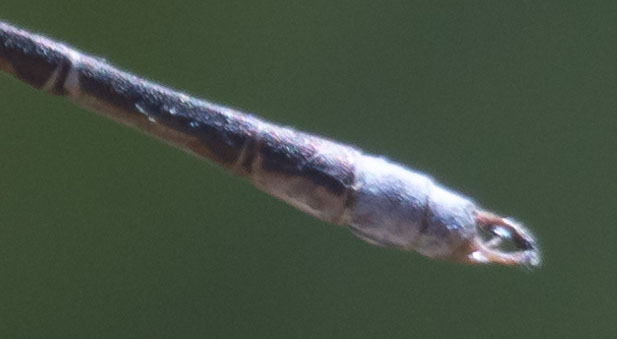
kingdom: Animalia
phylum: Arthropoda
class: Insecta
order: Odonata
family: Lestidae
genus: Lestes
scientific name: Lestes congener
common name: Spotted spreadwing
